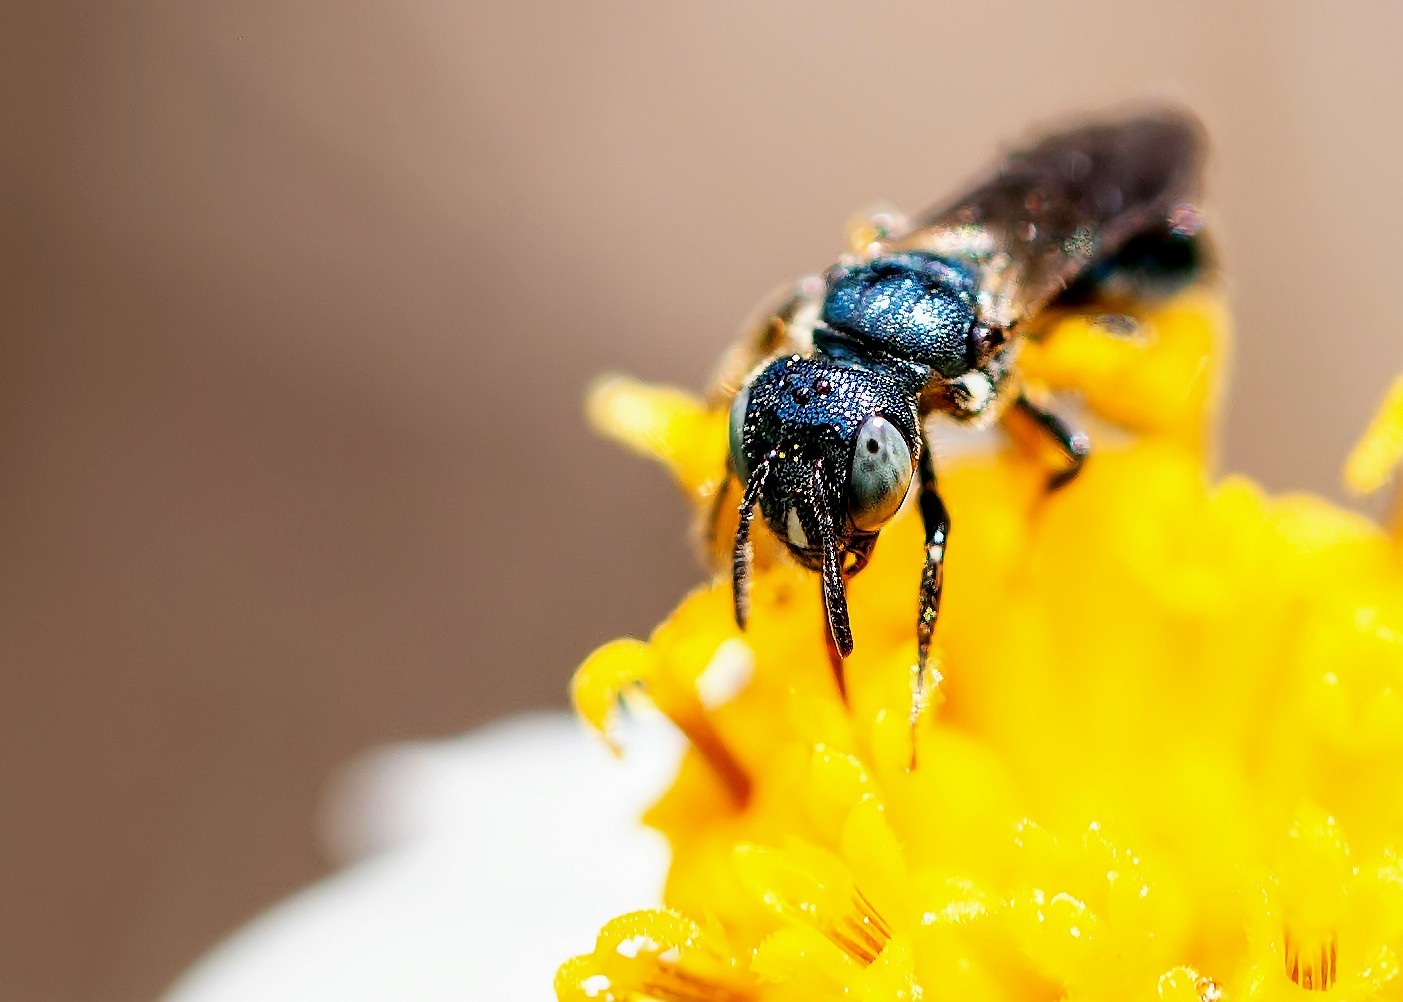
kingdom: Animalia
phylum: Arthropoda
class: Insecta
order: Hymenoptera
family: Apidae
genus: Ceratina
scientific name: Ceratina floridana
